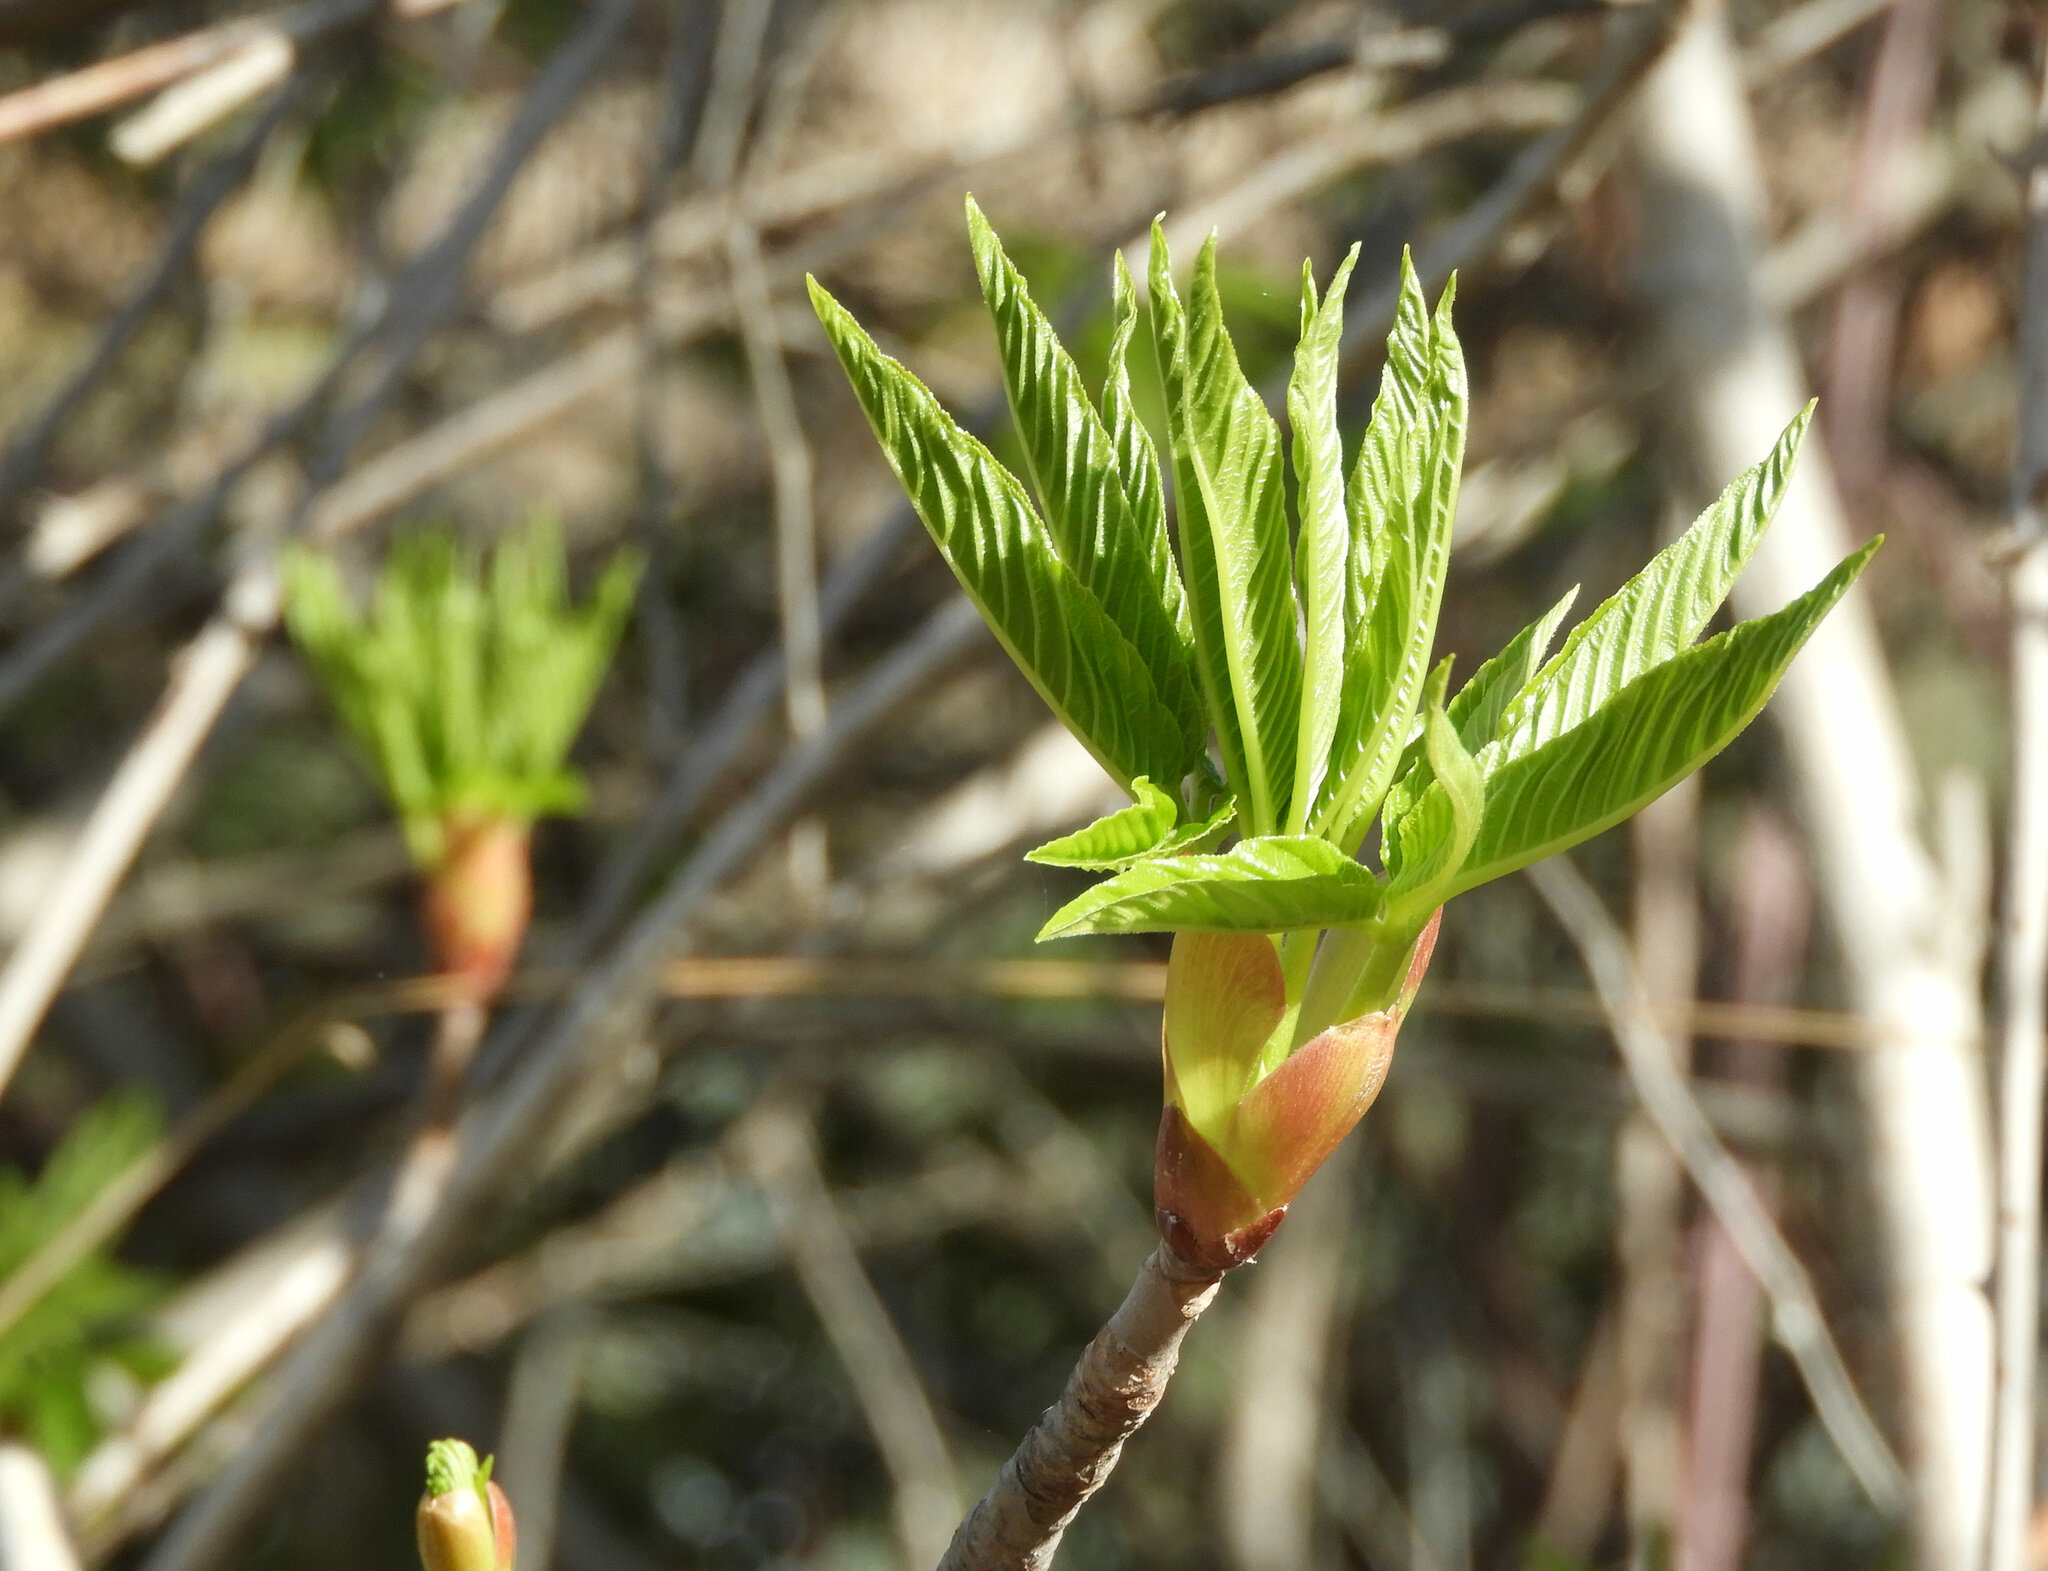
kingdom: Plantae
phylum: Tracheophyta
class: Magnoliopsida
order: Sapindales
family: Sapindaceae
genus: Aesculus
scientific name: Aesculus californica
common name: California buckeye
